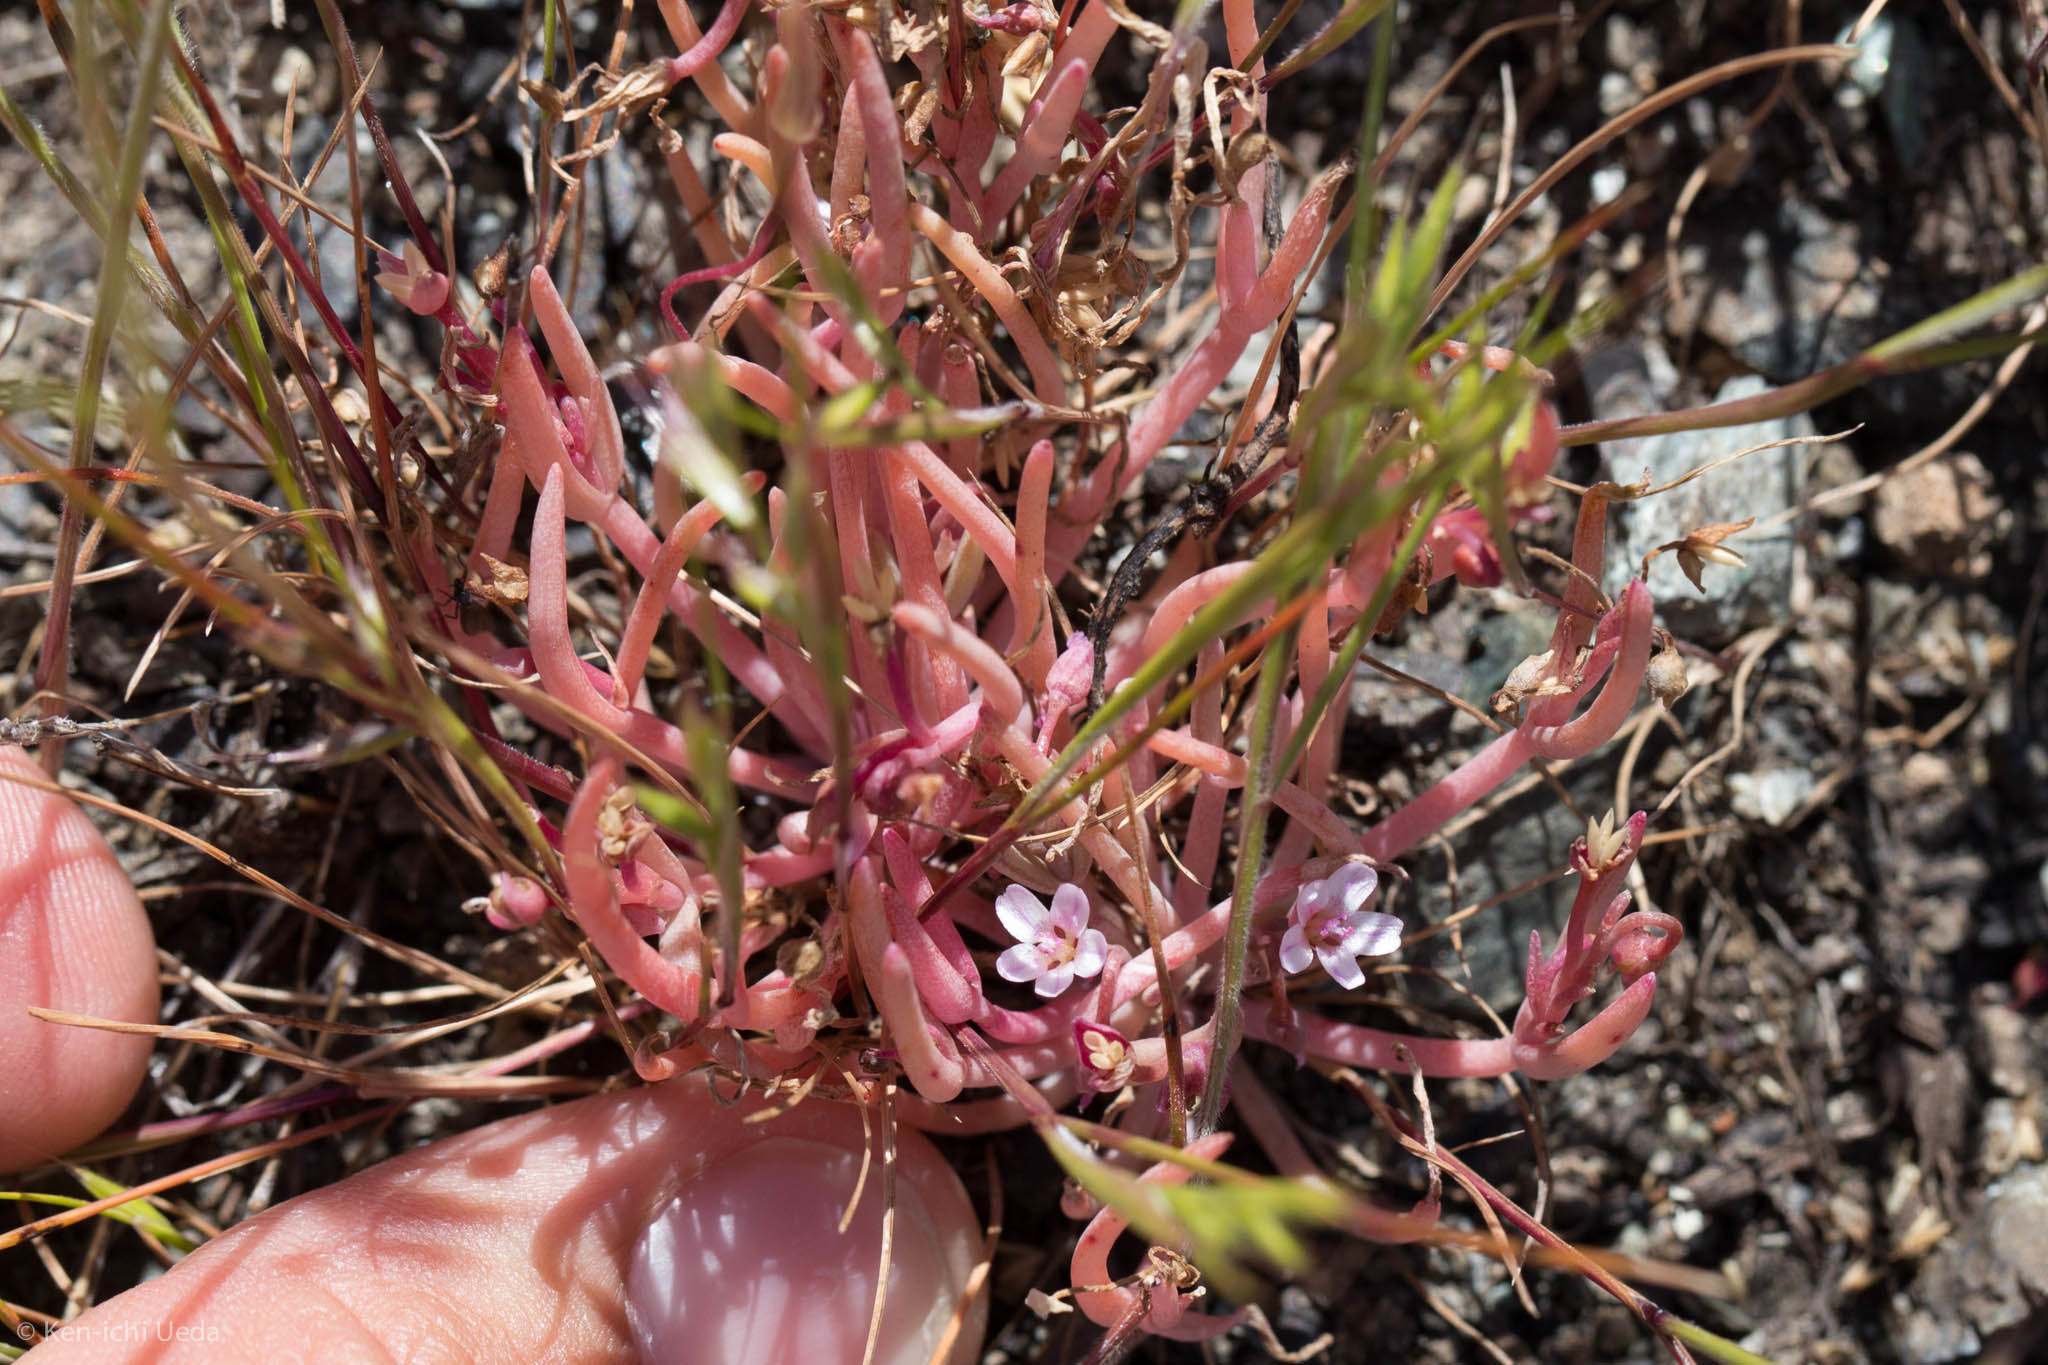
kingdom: Plantae
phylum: Tracheophyta
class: Magnoliopsida
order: Caryophyllales
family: Montiaceae
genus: Claytonia
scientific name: Claytonia exigua
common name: Pale spring beauty
